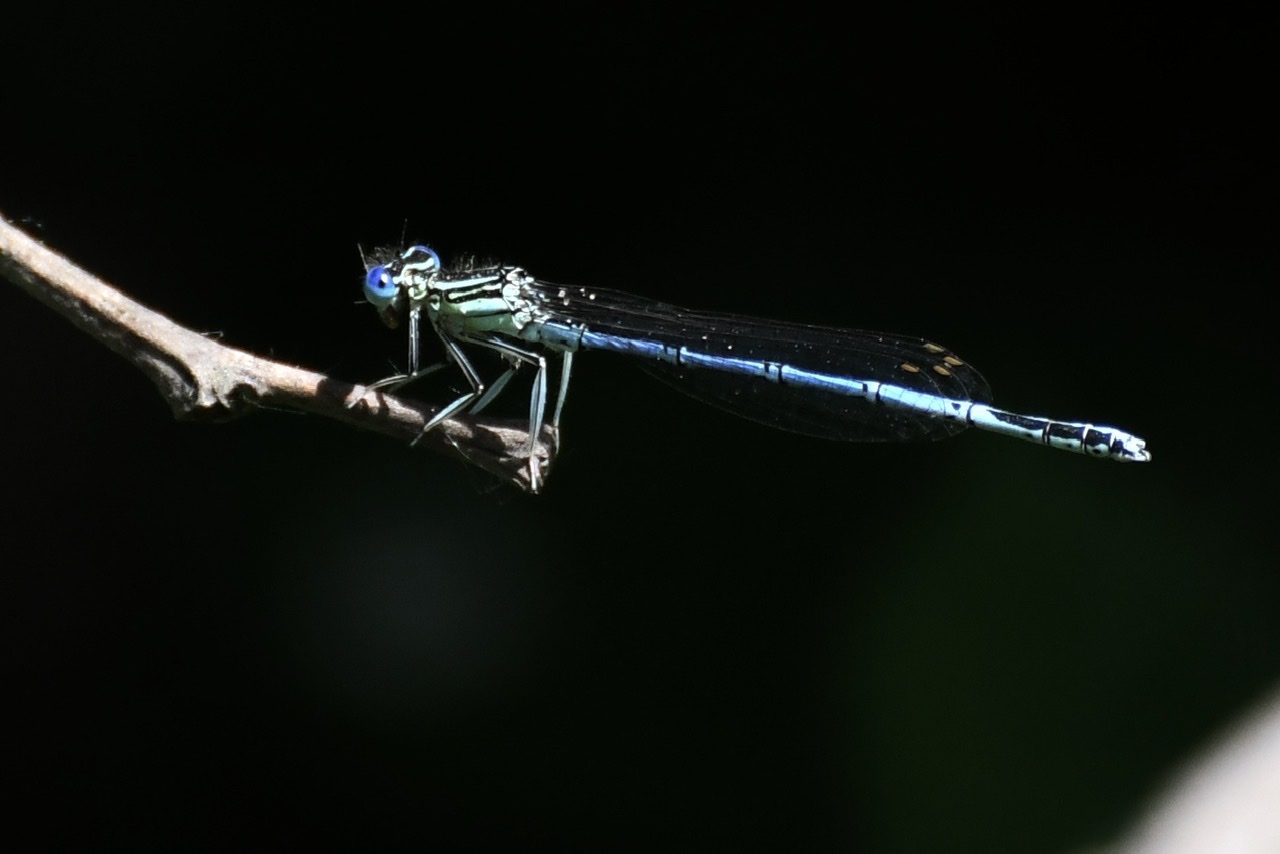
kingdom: Animalia
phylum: Arthropoda
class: Insecta
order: Odonata
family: Platycnemididae
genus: Platycnemis
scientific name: Platycnemis pennipes
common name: White-legged damselfly
